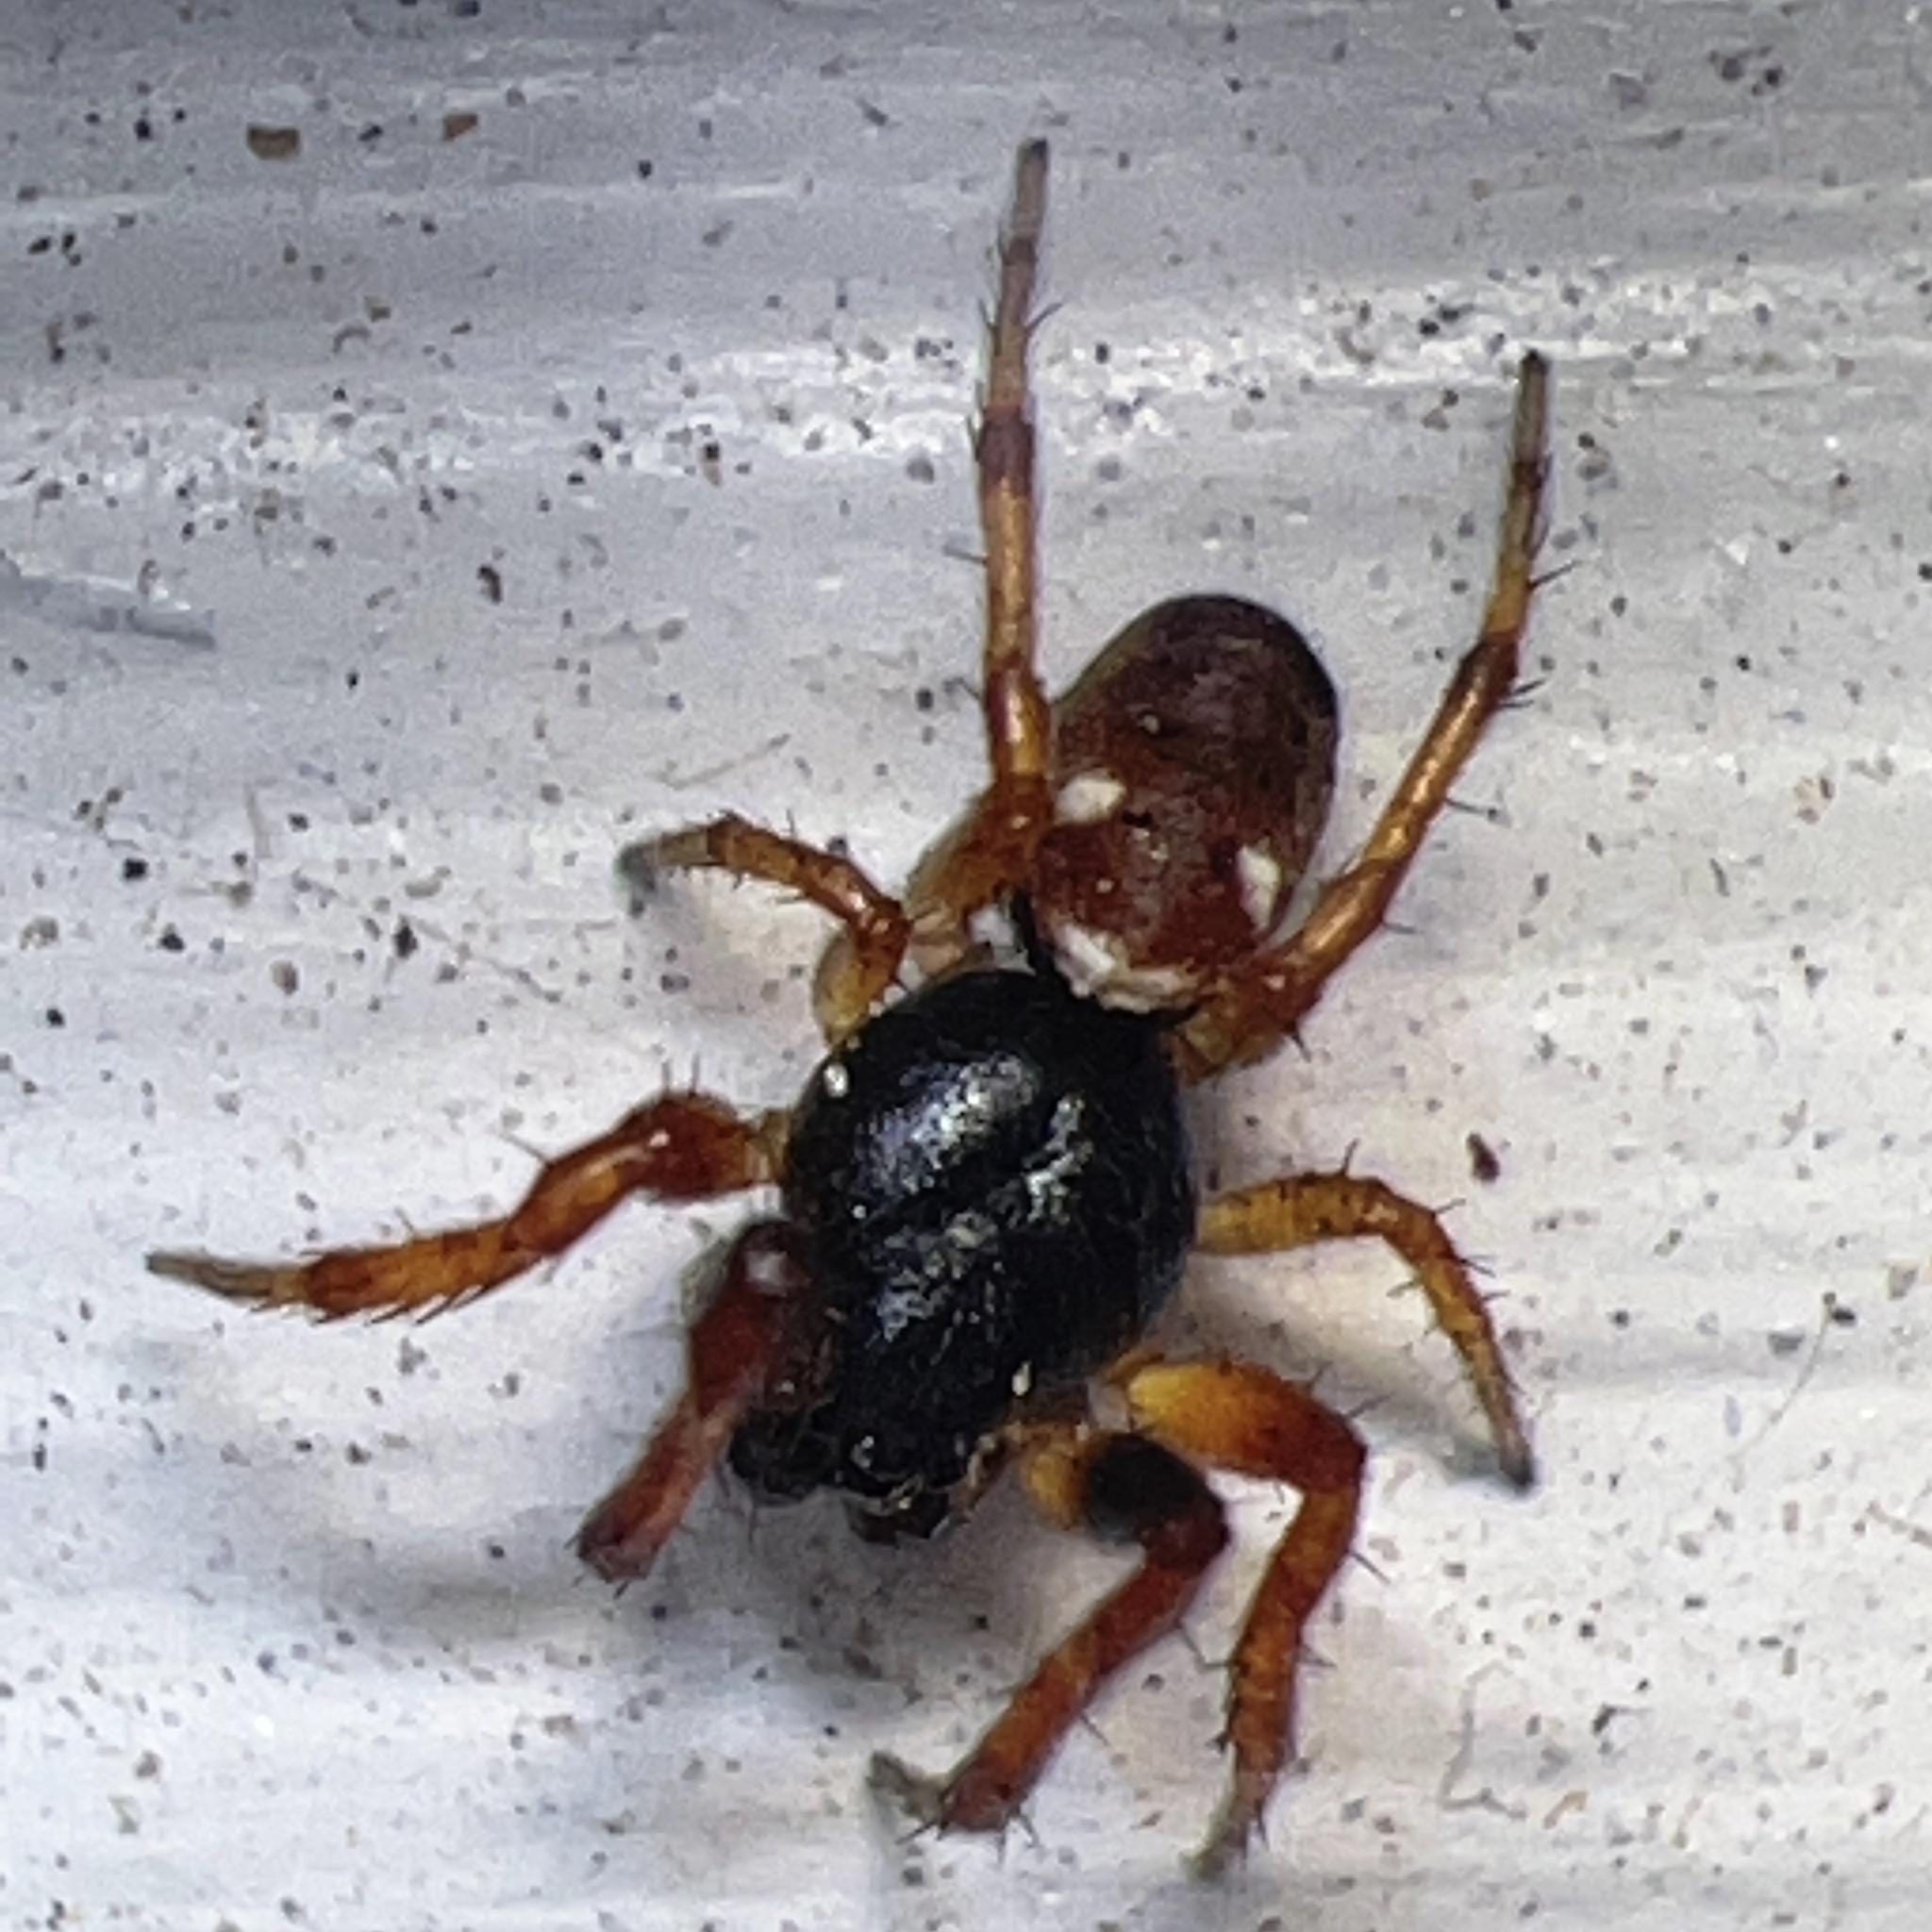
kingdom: Animalia
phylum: Arthropoda
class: Arachnida
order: Araneae
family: Araneidae
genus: Cyclosa
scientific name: Cyclosa turbinata
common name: Orb weavers
